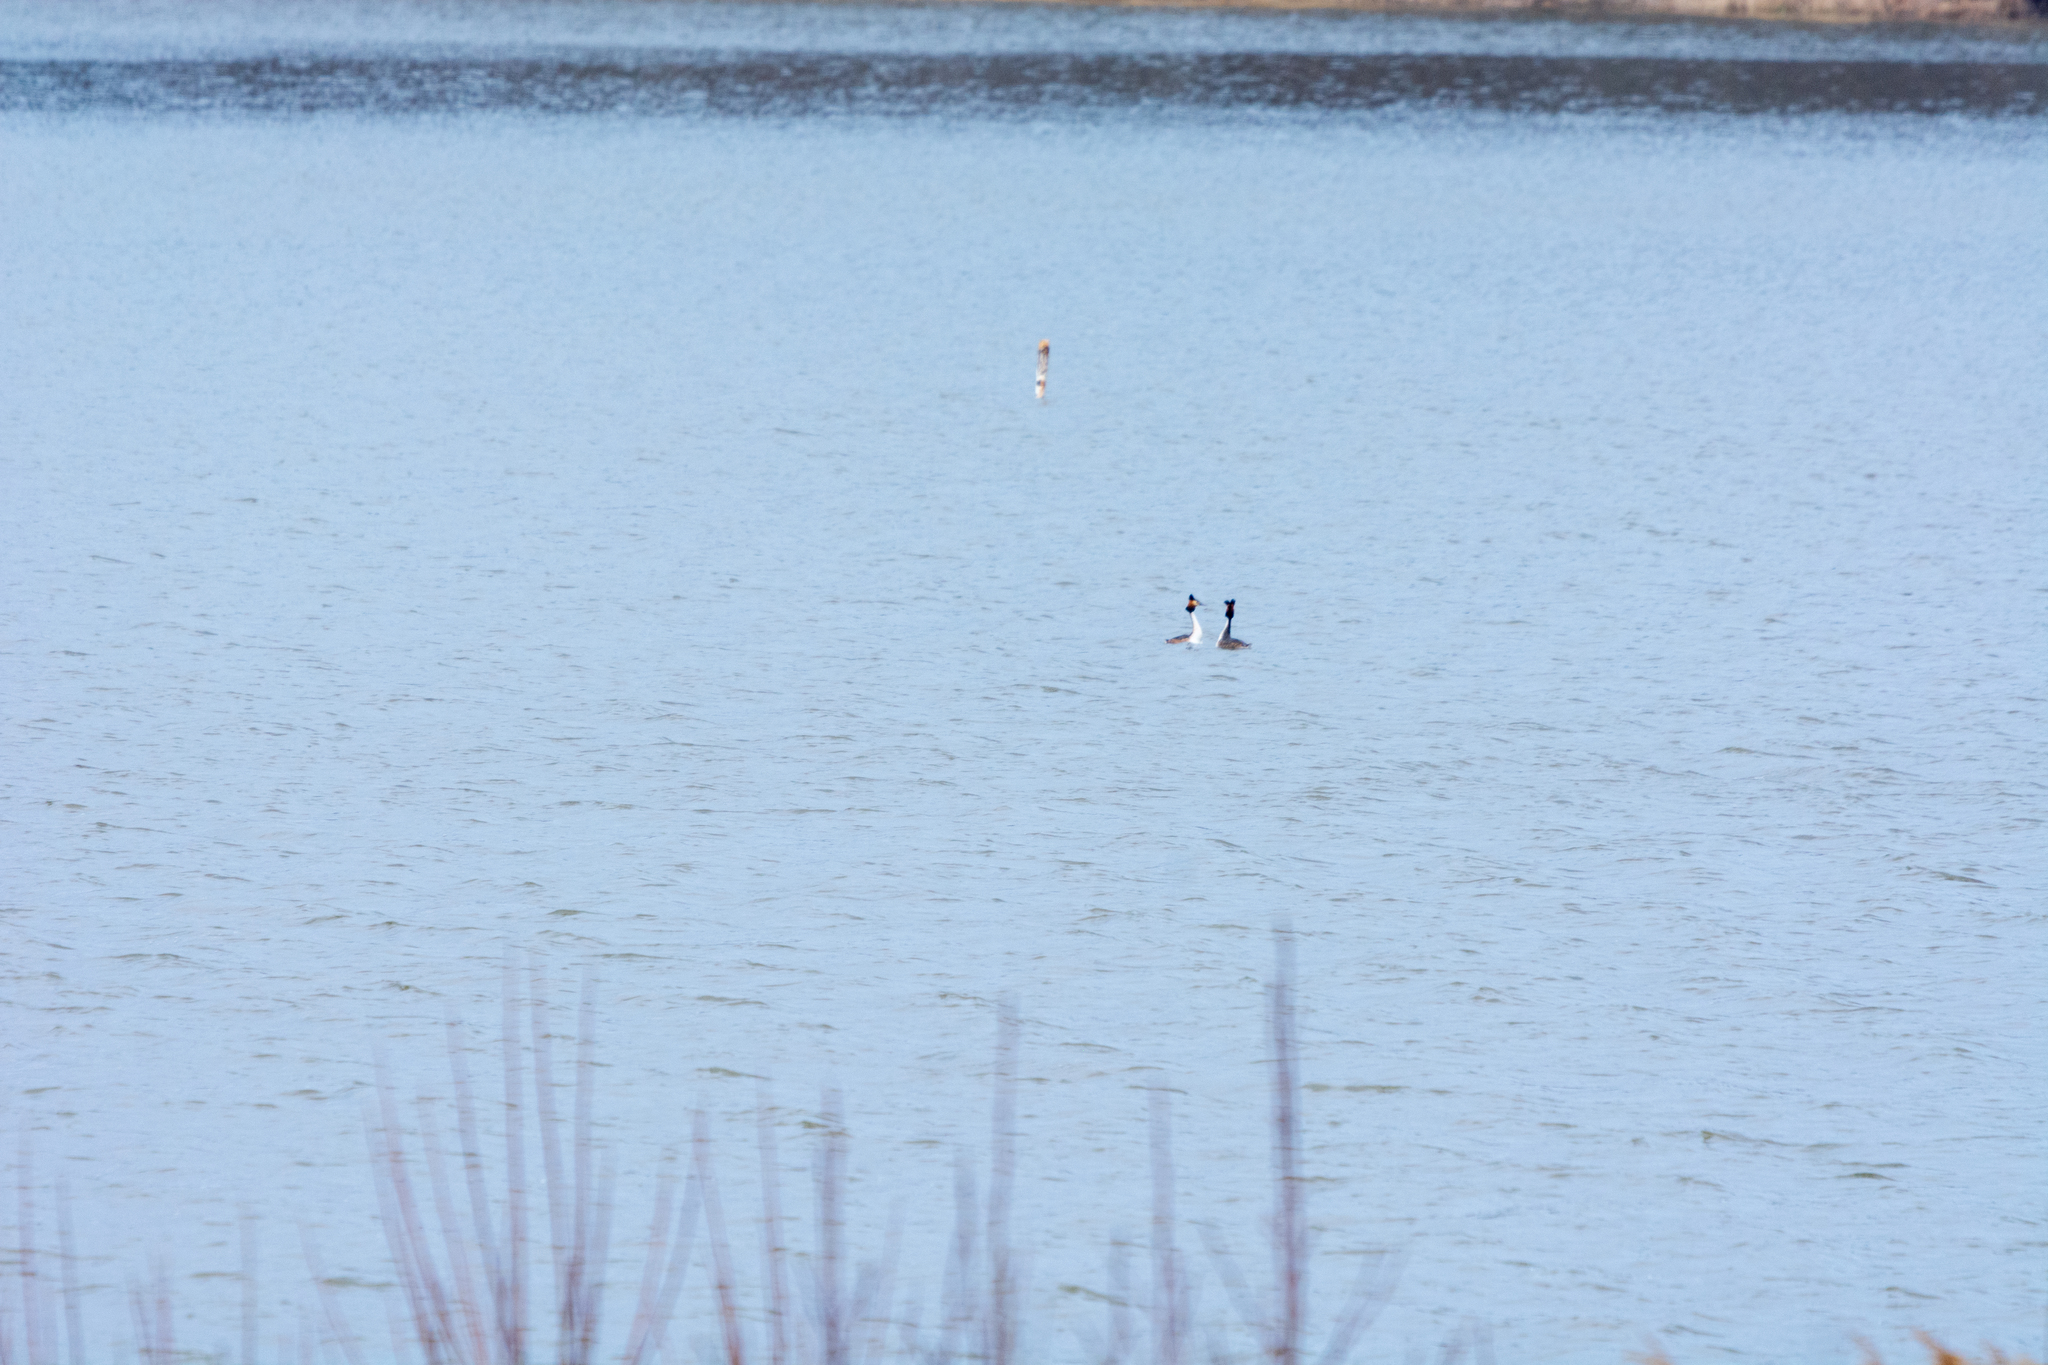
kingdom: Animalia
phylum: Chordata
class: Aves
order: Podicipediformes
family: Podicipedidae
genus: Podiceps
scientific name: Podiceps cristatus
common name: Great crested grebe
